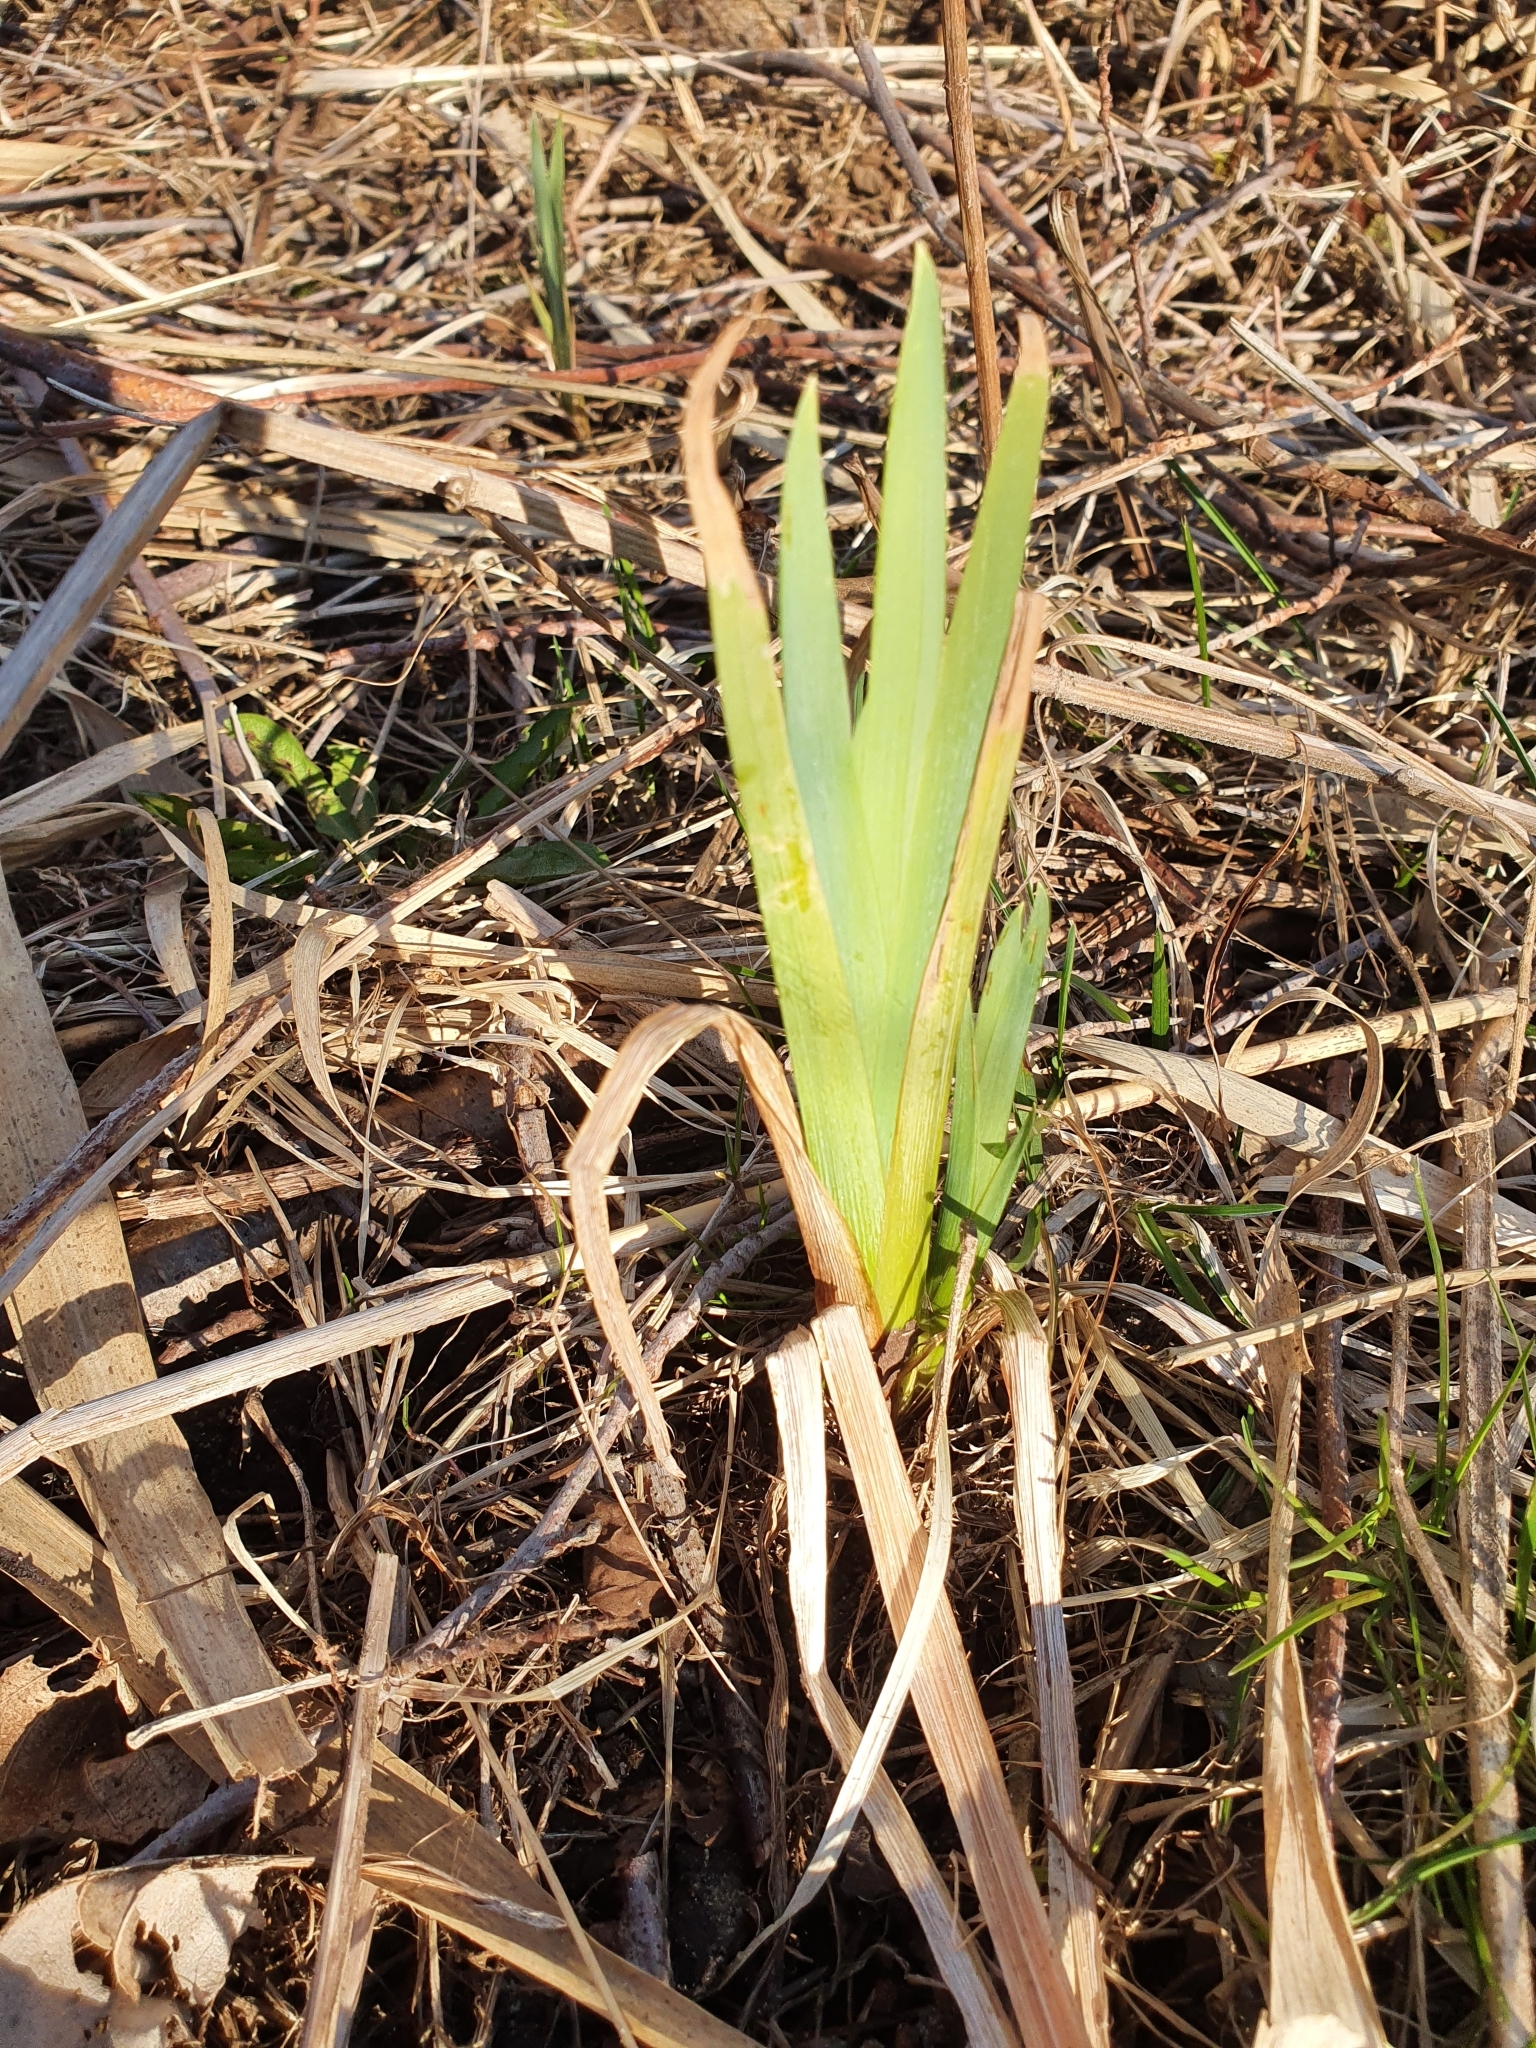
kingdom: Plantae
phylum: Tracheophyta
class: Liliopsida
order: Asparagales
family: Iridaceae
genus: Iris
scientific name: Iris pseudacorus
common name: Yellow flag
